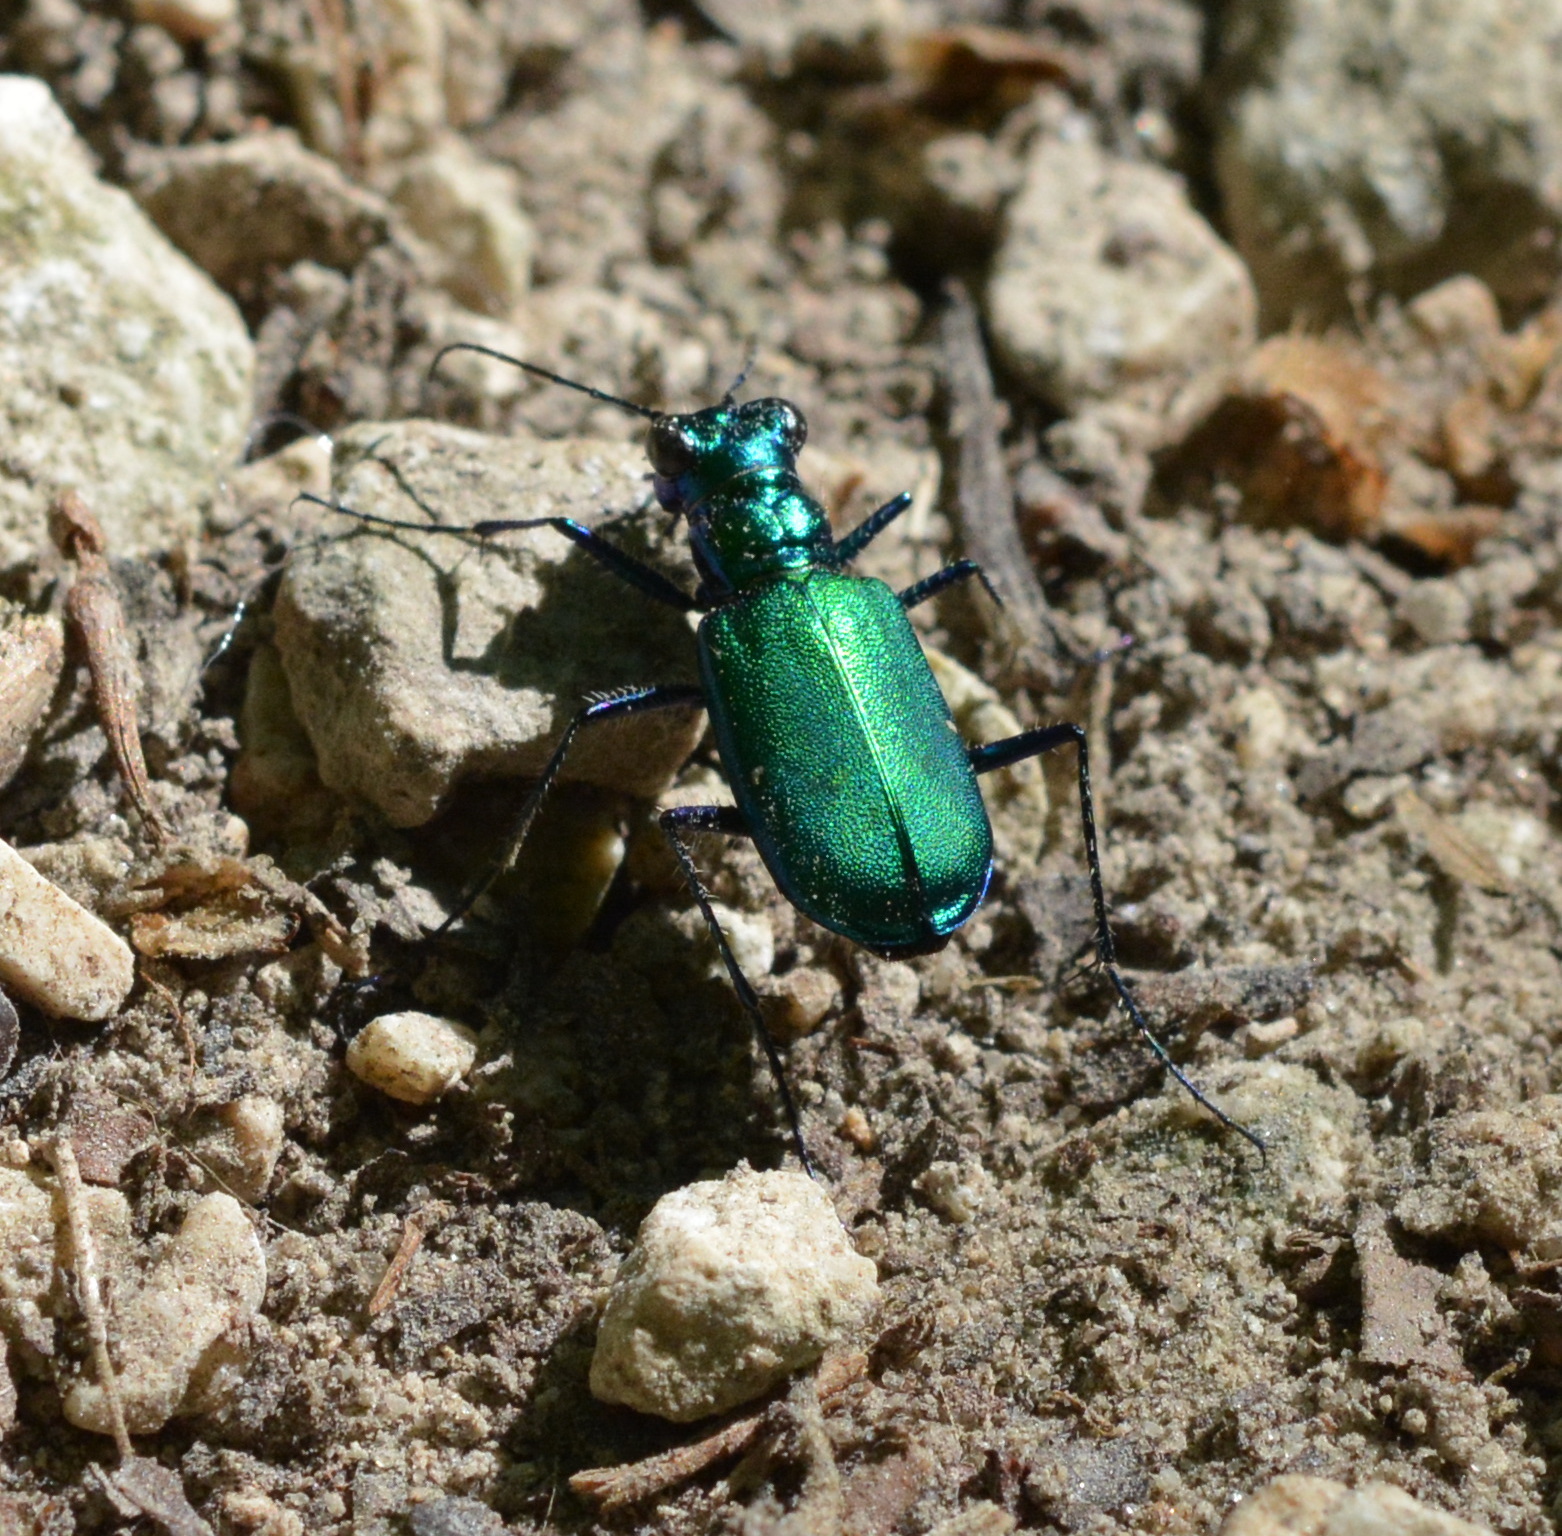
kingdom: Animalia
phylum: Arthropoda
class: Insecta
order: Coleoptera
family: Carabidae
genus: Cicindela
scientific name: Cicindela sexguttata
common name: Six-spotted tiger beetle
